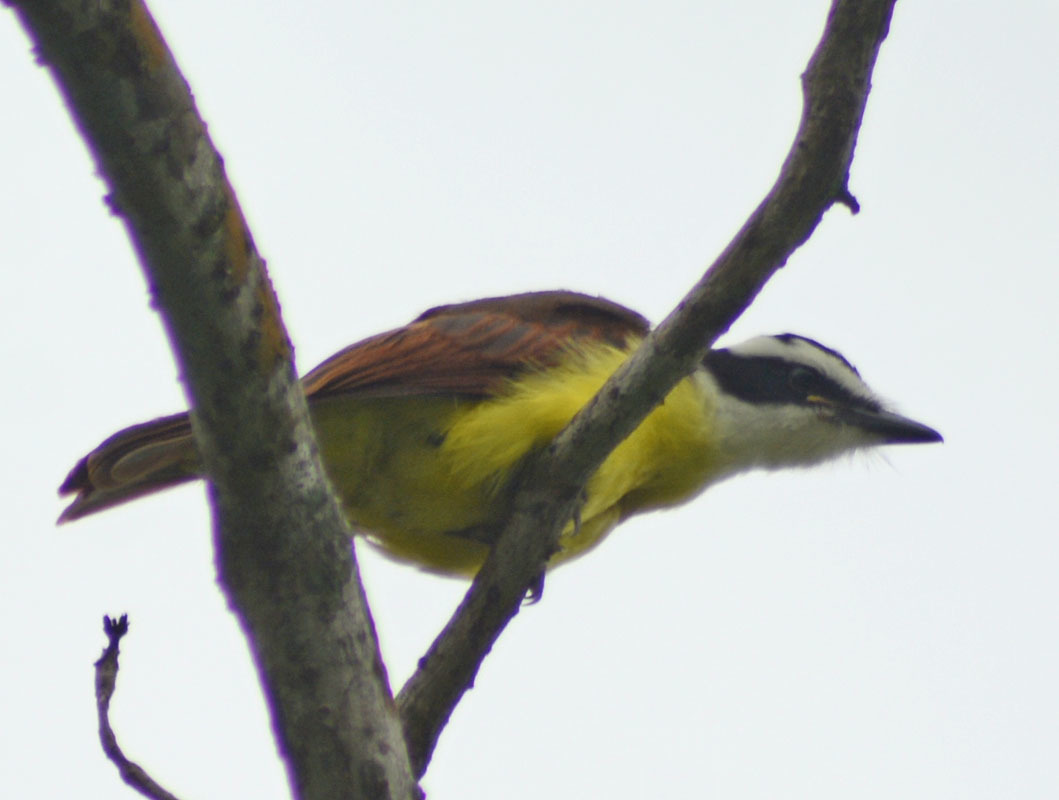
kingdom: Animalia
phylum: Chordata
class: Aves
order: Passeriformes
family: Tyrannidae
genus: Pitangus
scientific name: Pitangus sulphuratus
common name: Great kiskadee
